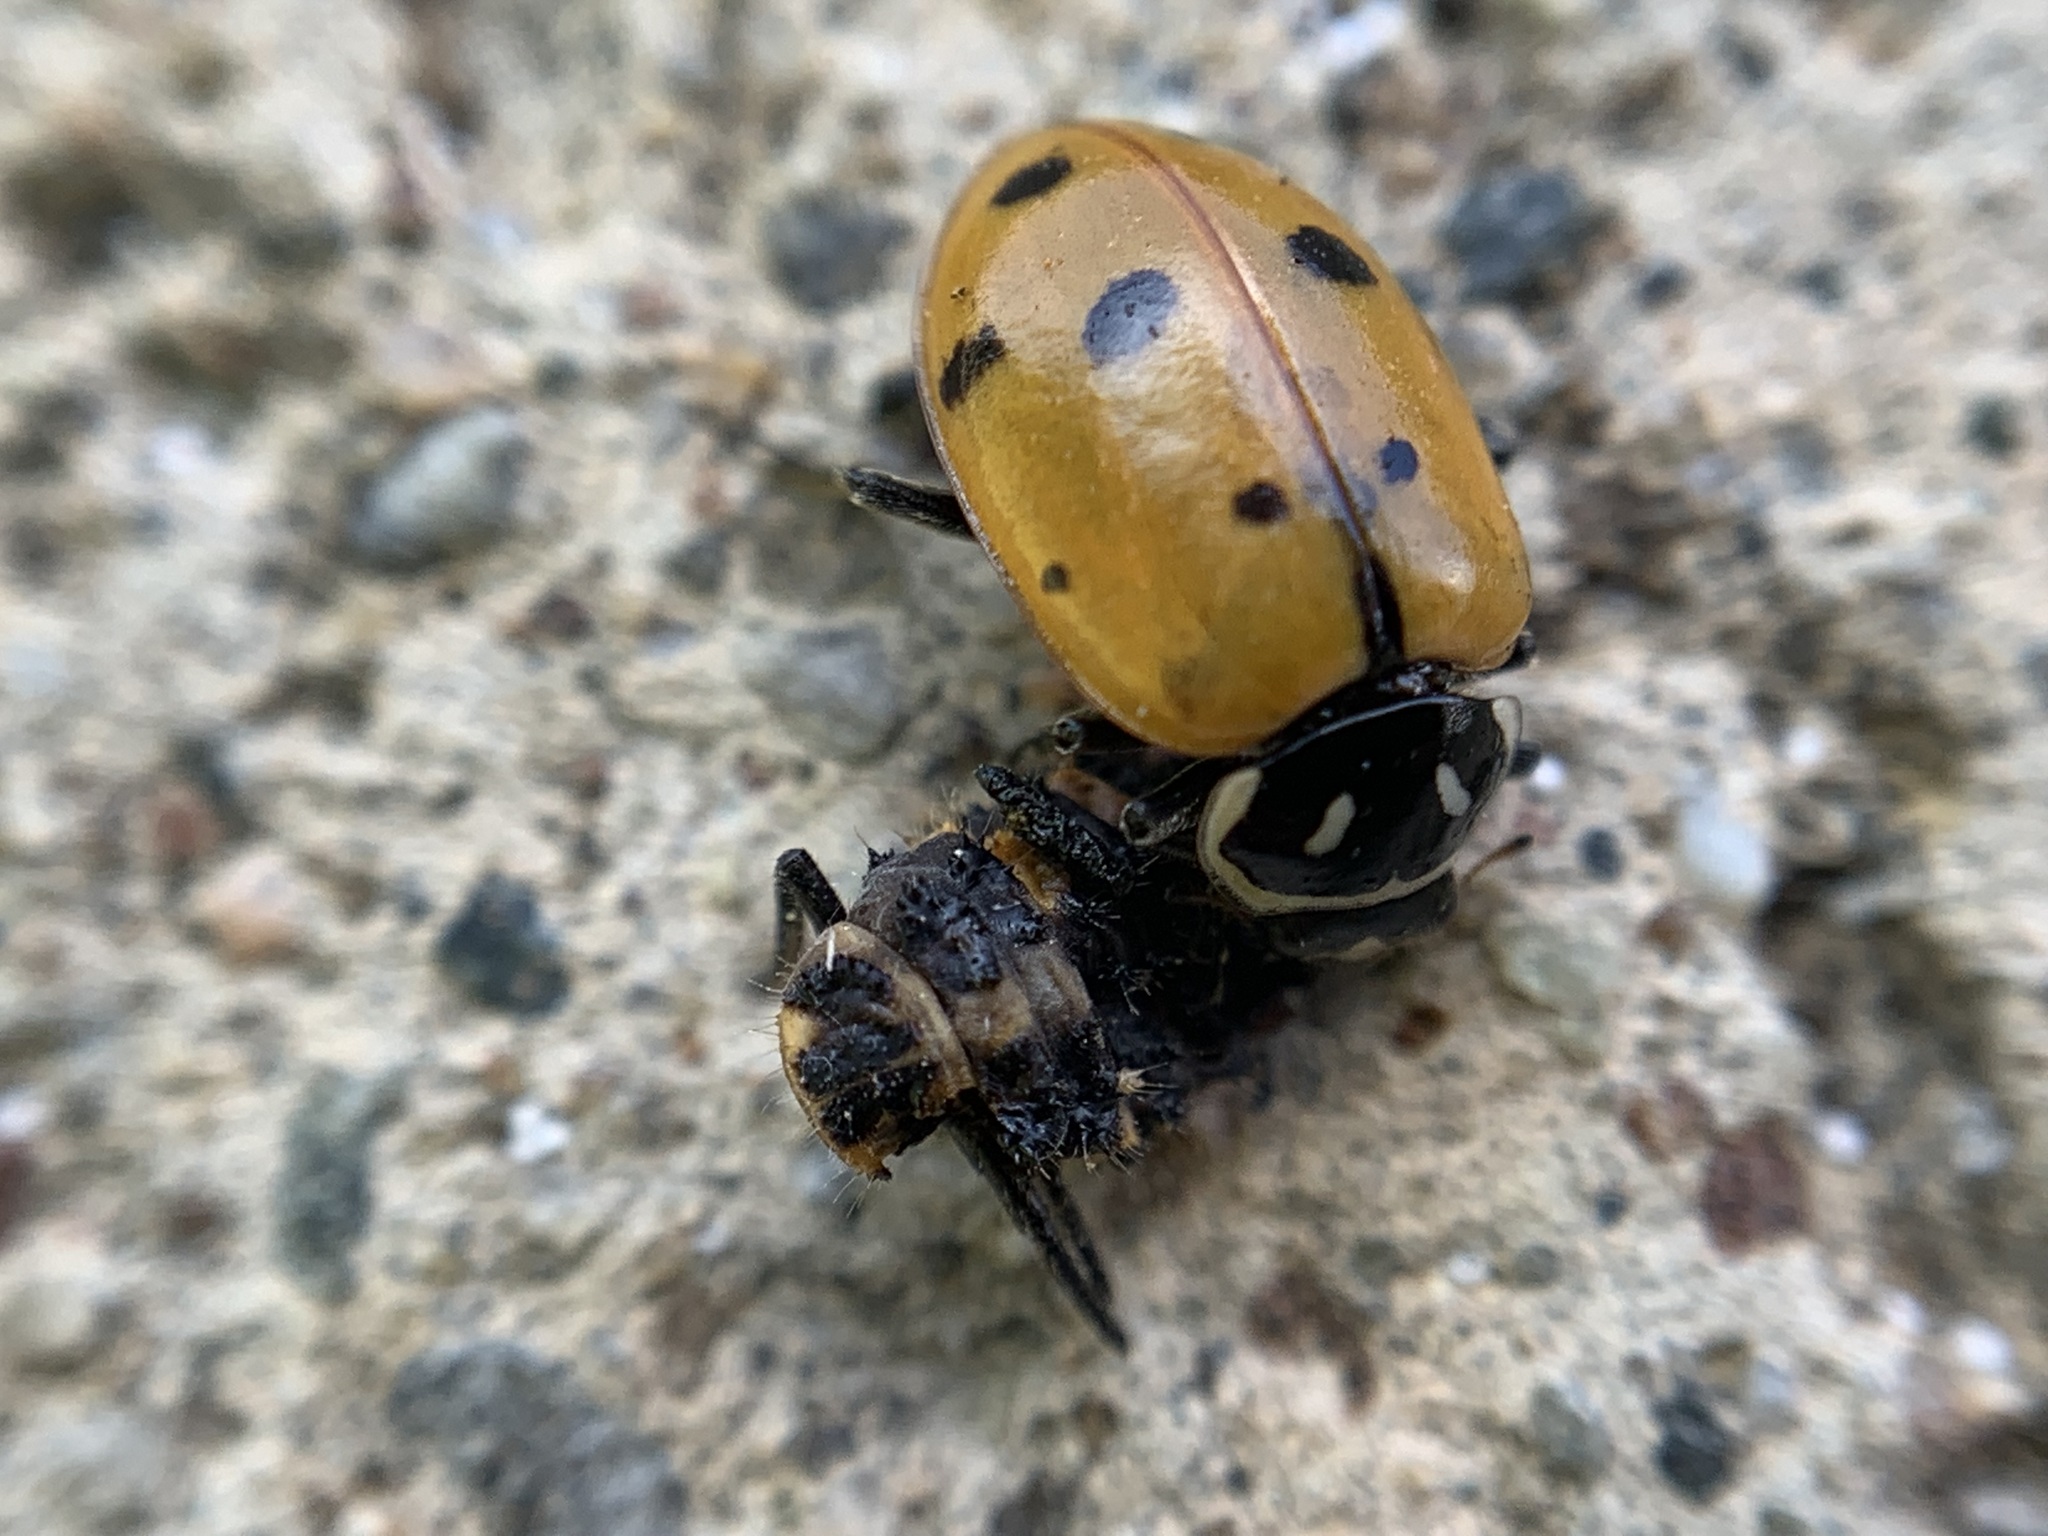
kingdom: Animalia
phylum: Arthropoda
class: Insecta
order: Coleoptera
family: Coccinellidae
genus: Hippodamia
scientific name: Hippodamia convergens
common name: Convergent lady beetle
